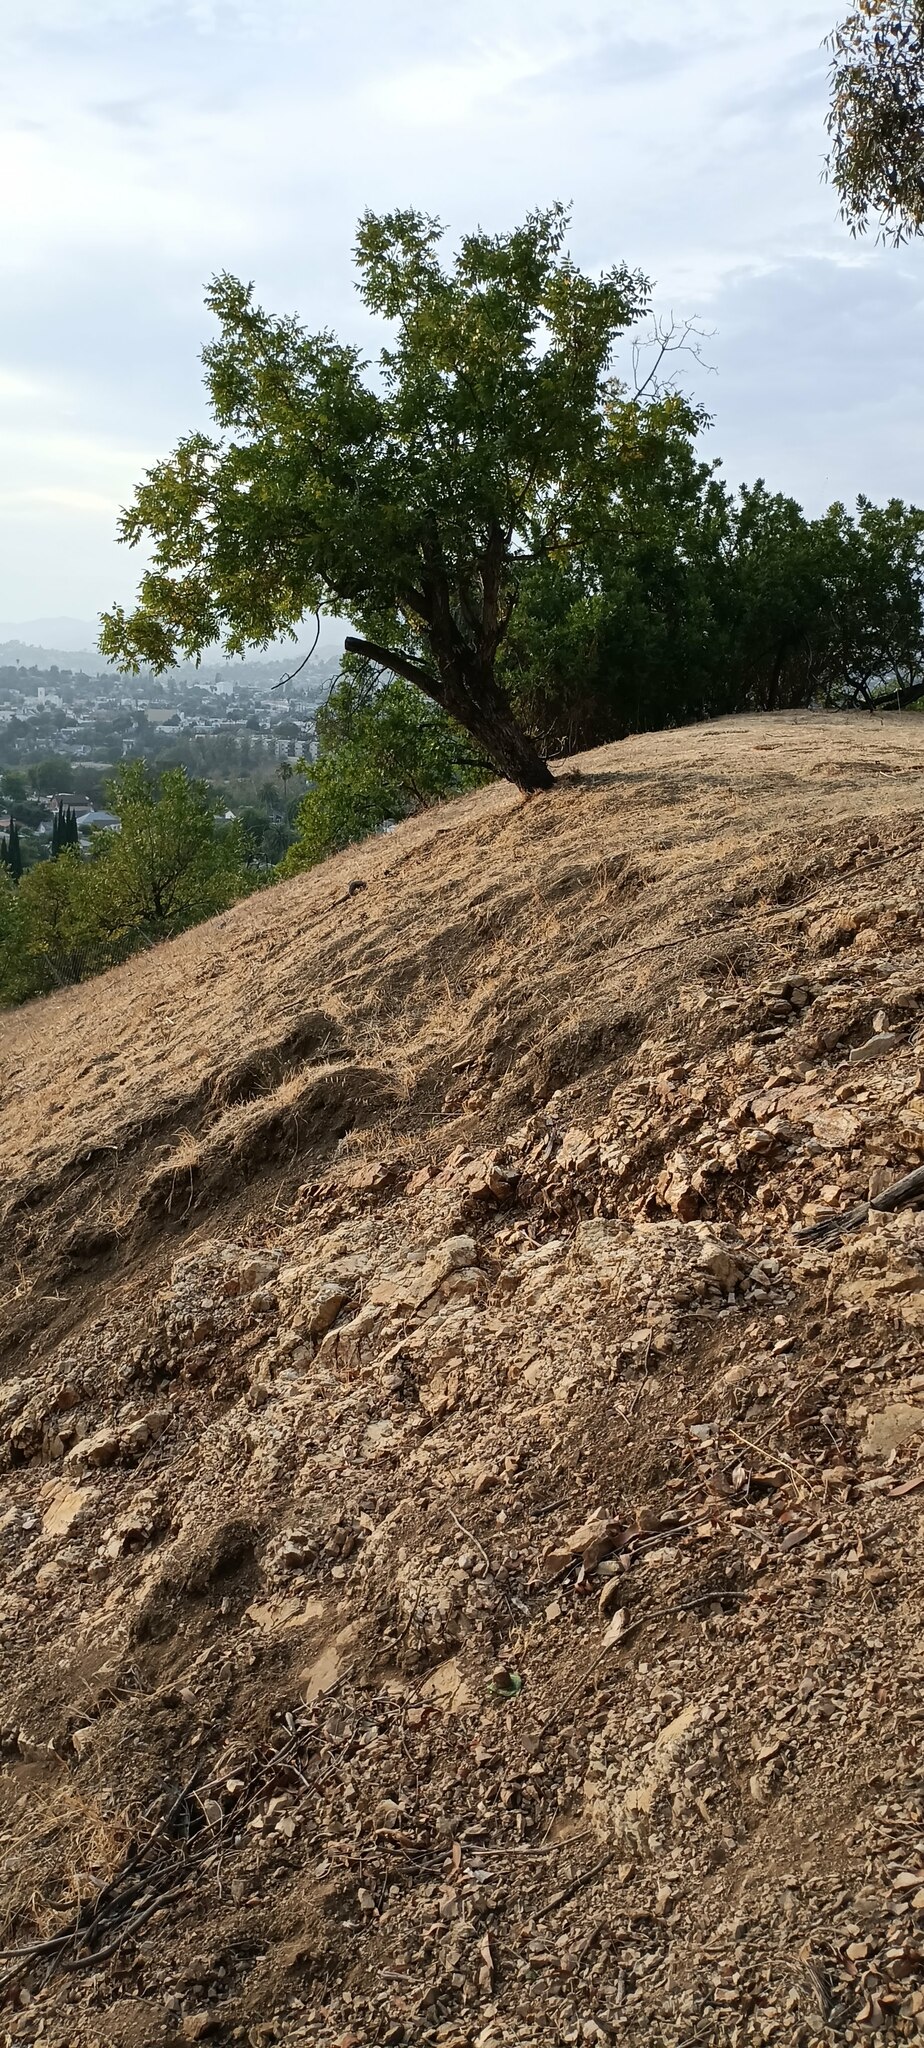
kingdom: Plantae
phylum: Tracheophyta
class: Magnoliopsida
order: Fagales
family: Juglandaceae
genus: Juglans
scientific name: Juglans californica
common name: Southern california black walnut
